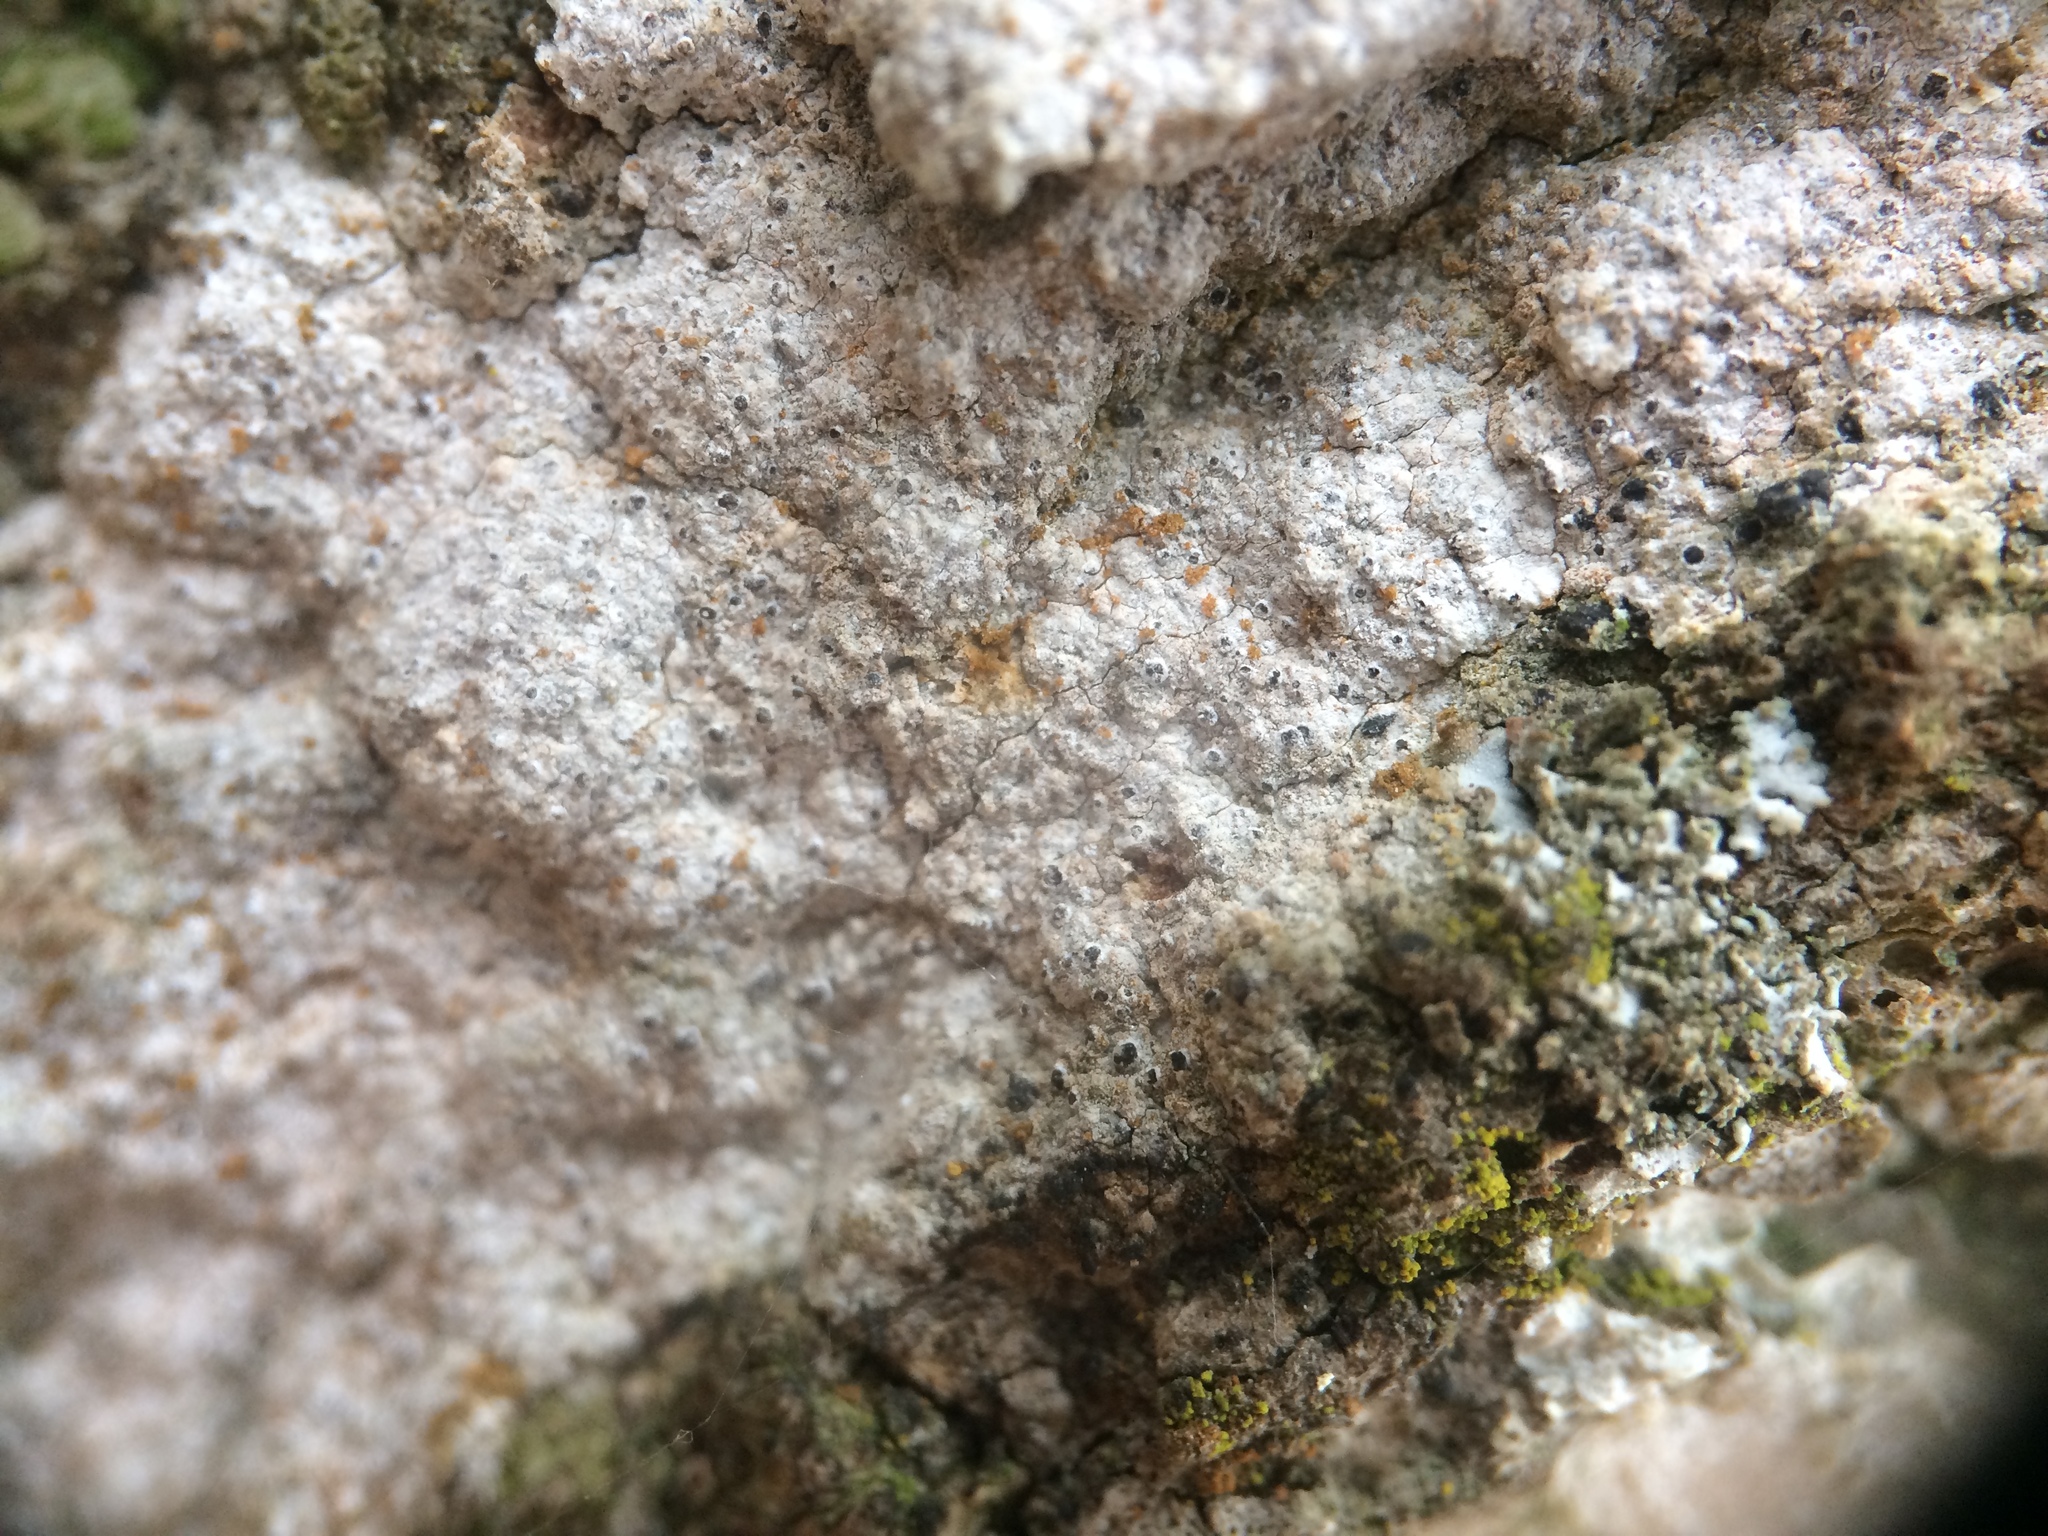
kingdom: Fungi
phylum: Ascomycota
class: Arthoniomycetes
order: Arthoniales
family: Arthoniaceae
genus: Inoderma
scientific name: Inoderma byssaceum
